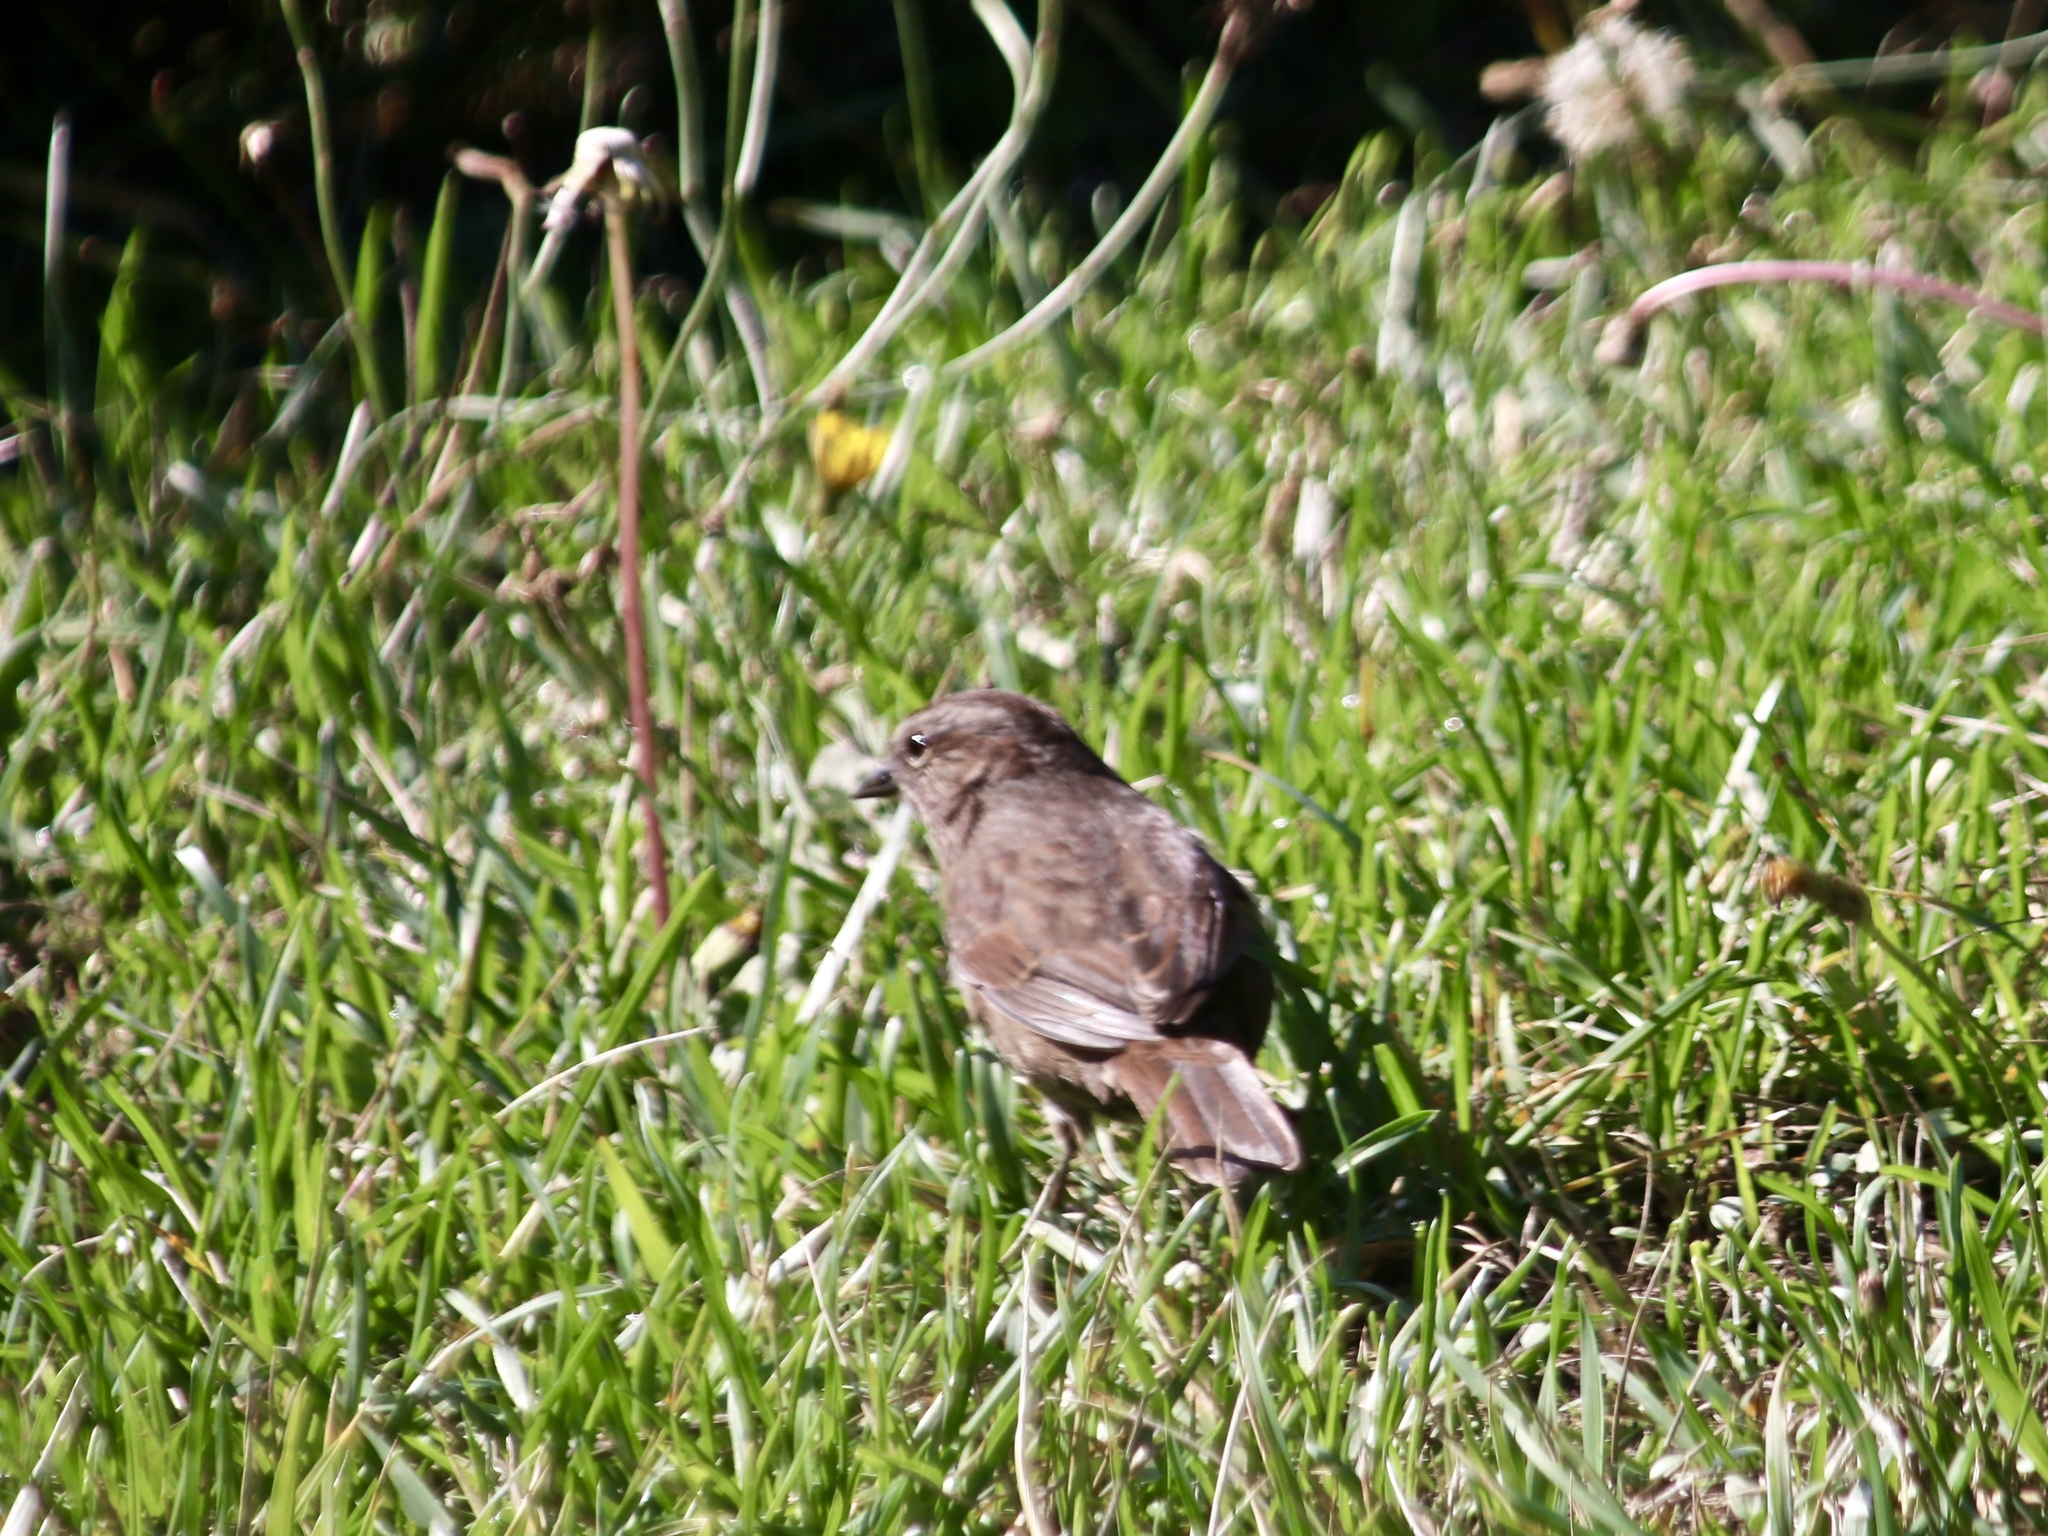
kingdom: Animalia
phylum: Chordata
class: Aves
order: Passeriformes
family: Passerellidae
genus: Melospiza
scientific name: Melospiza melodia
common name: Song sparrow
